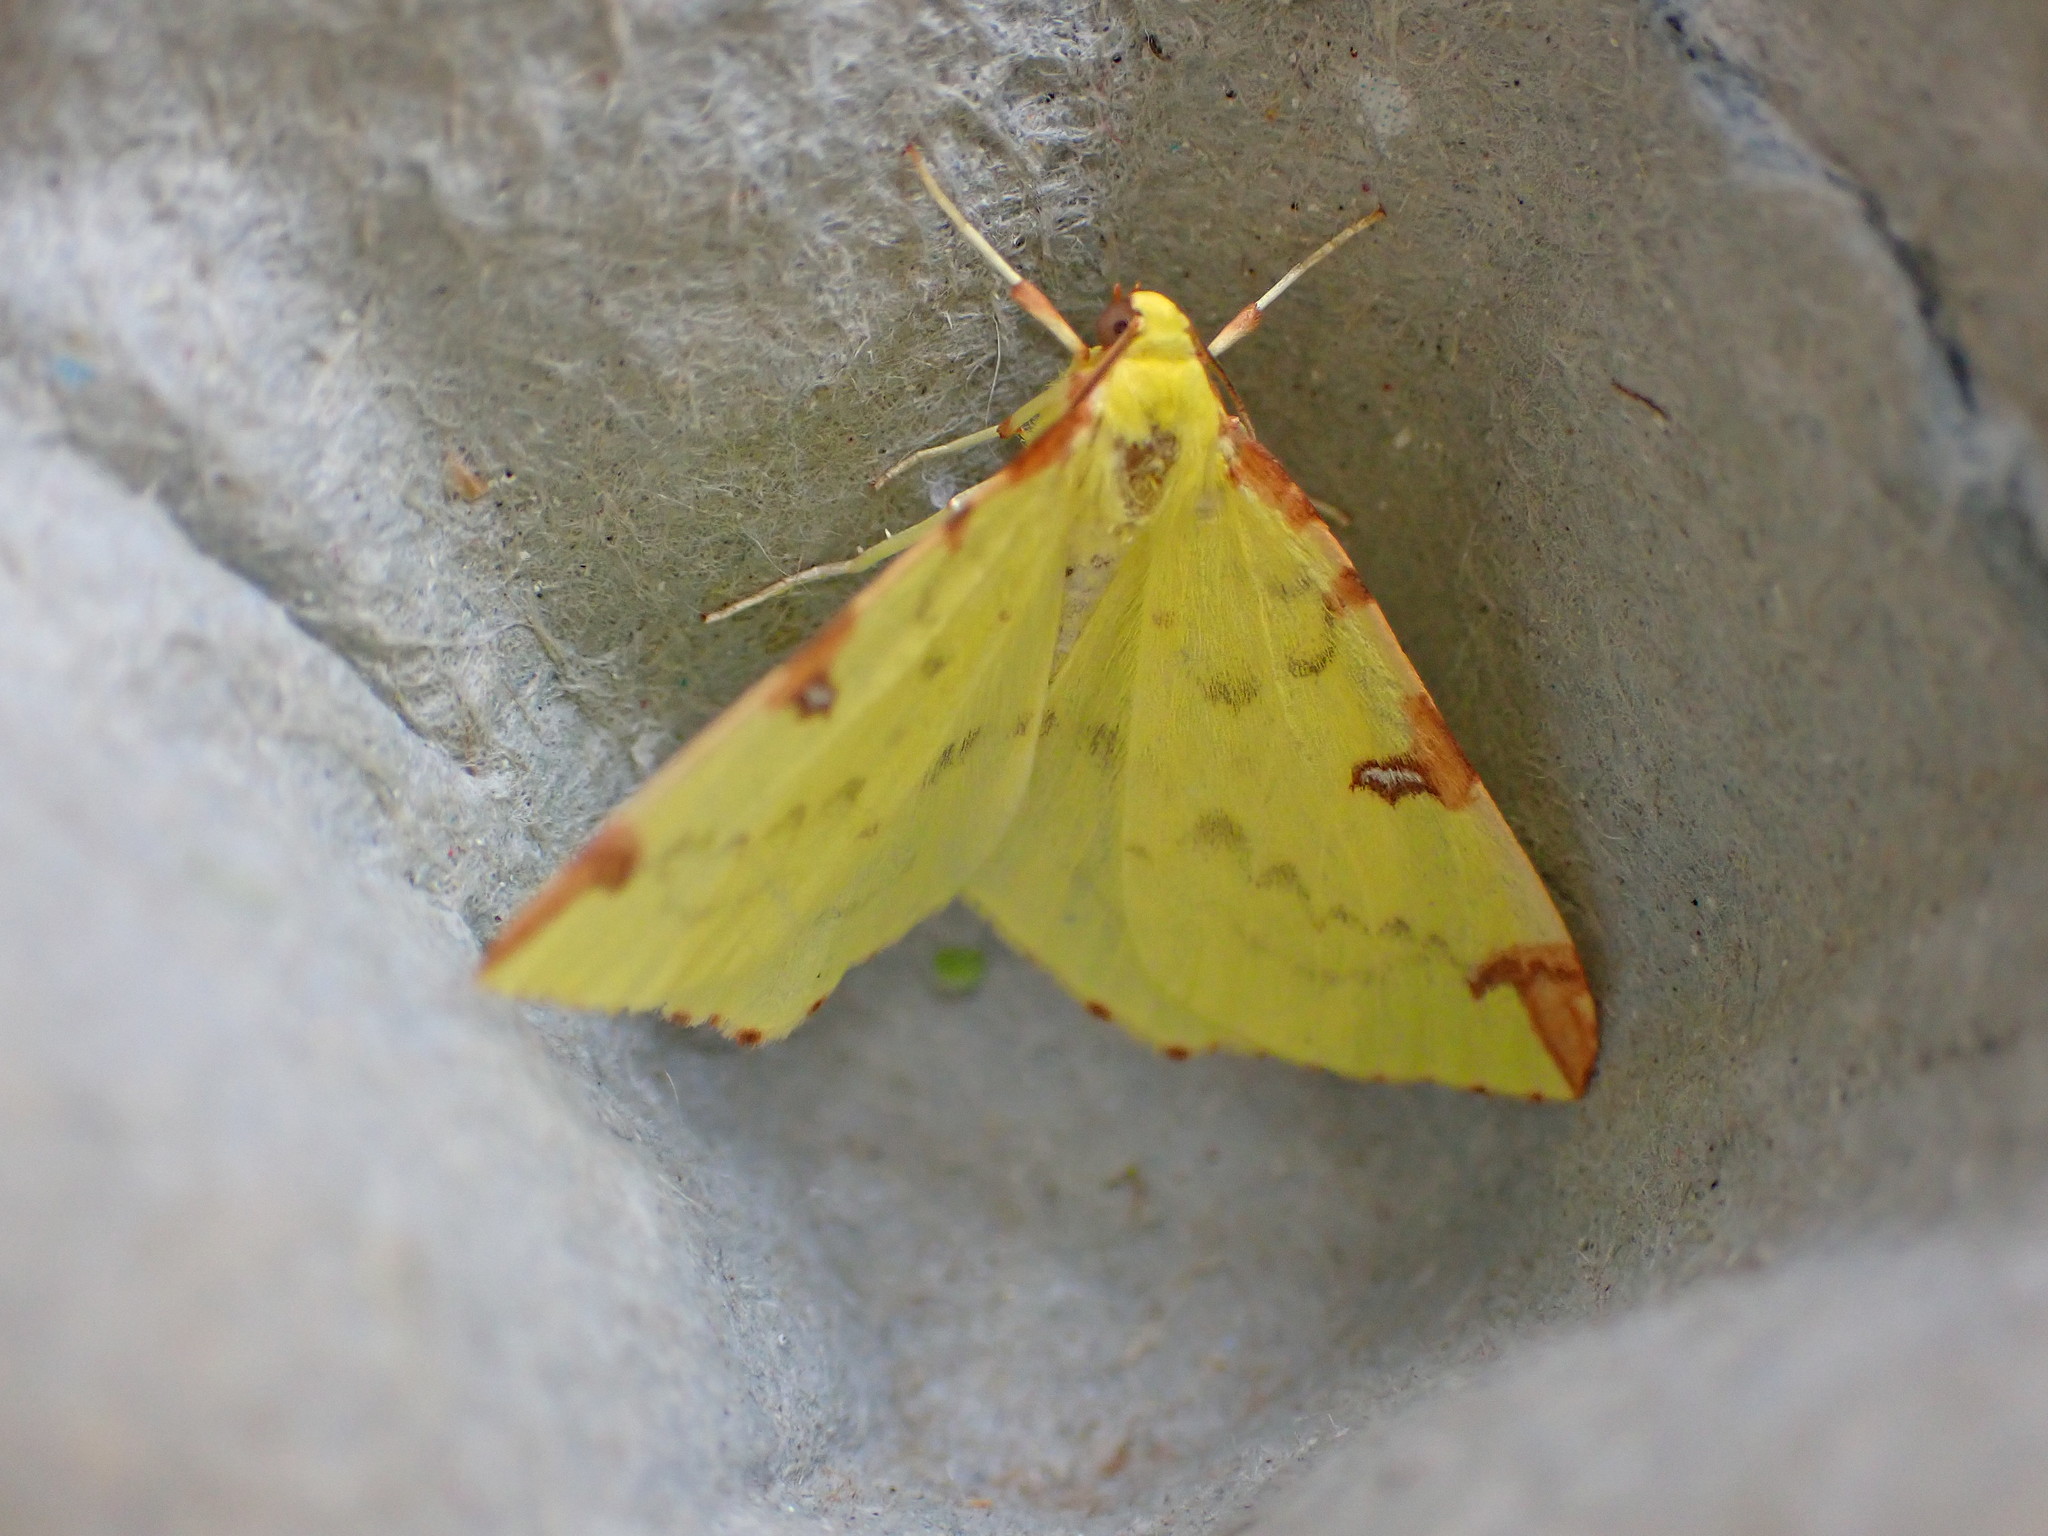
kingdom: Animalia
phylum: Arthropoda
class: Insecta
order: Lepidoptera
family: Geometridae
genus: Opisthograptis
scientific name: Opisthograptis luteolata
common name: Brimstone moth
